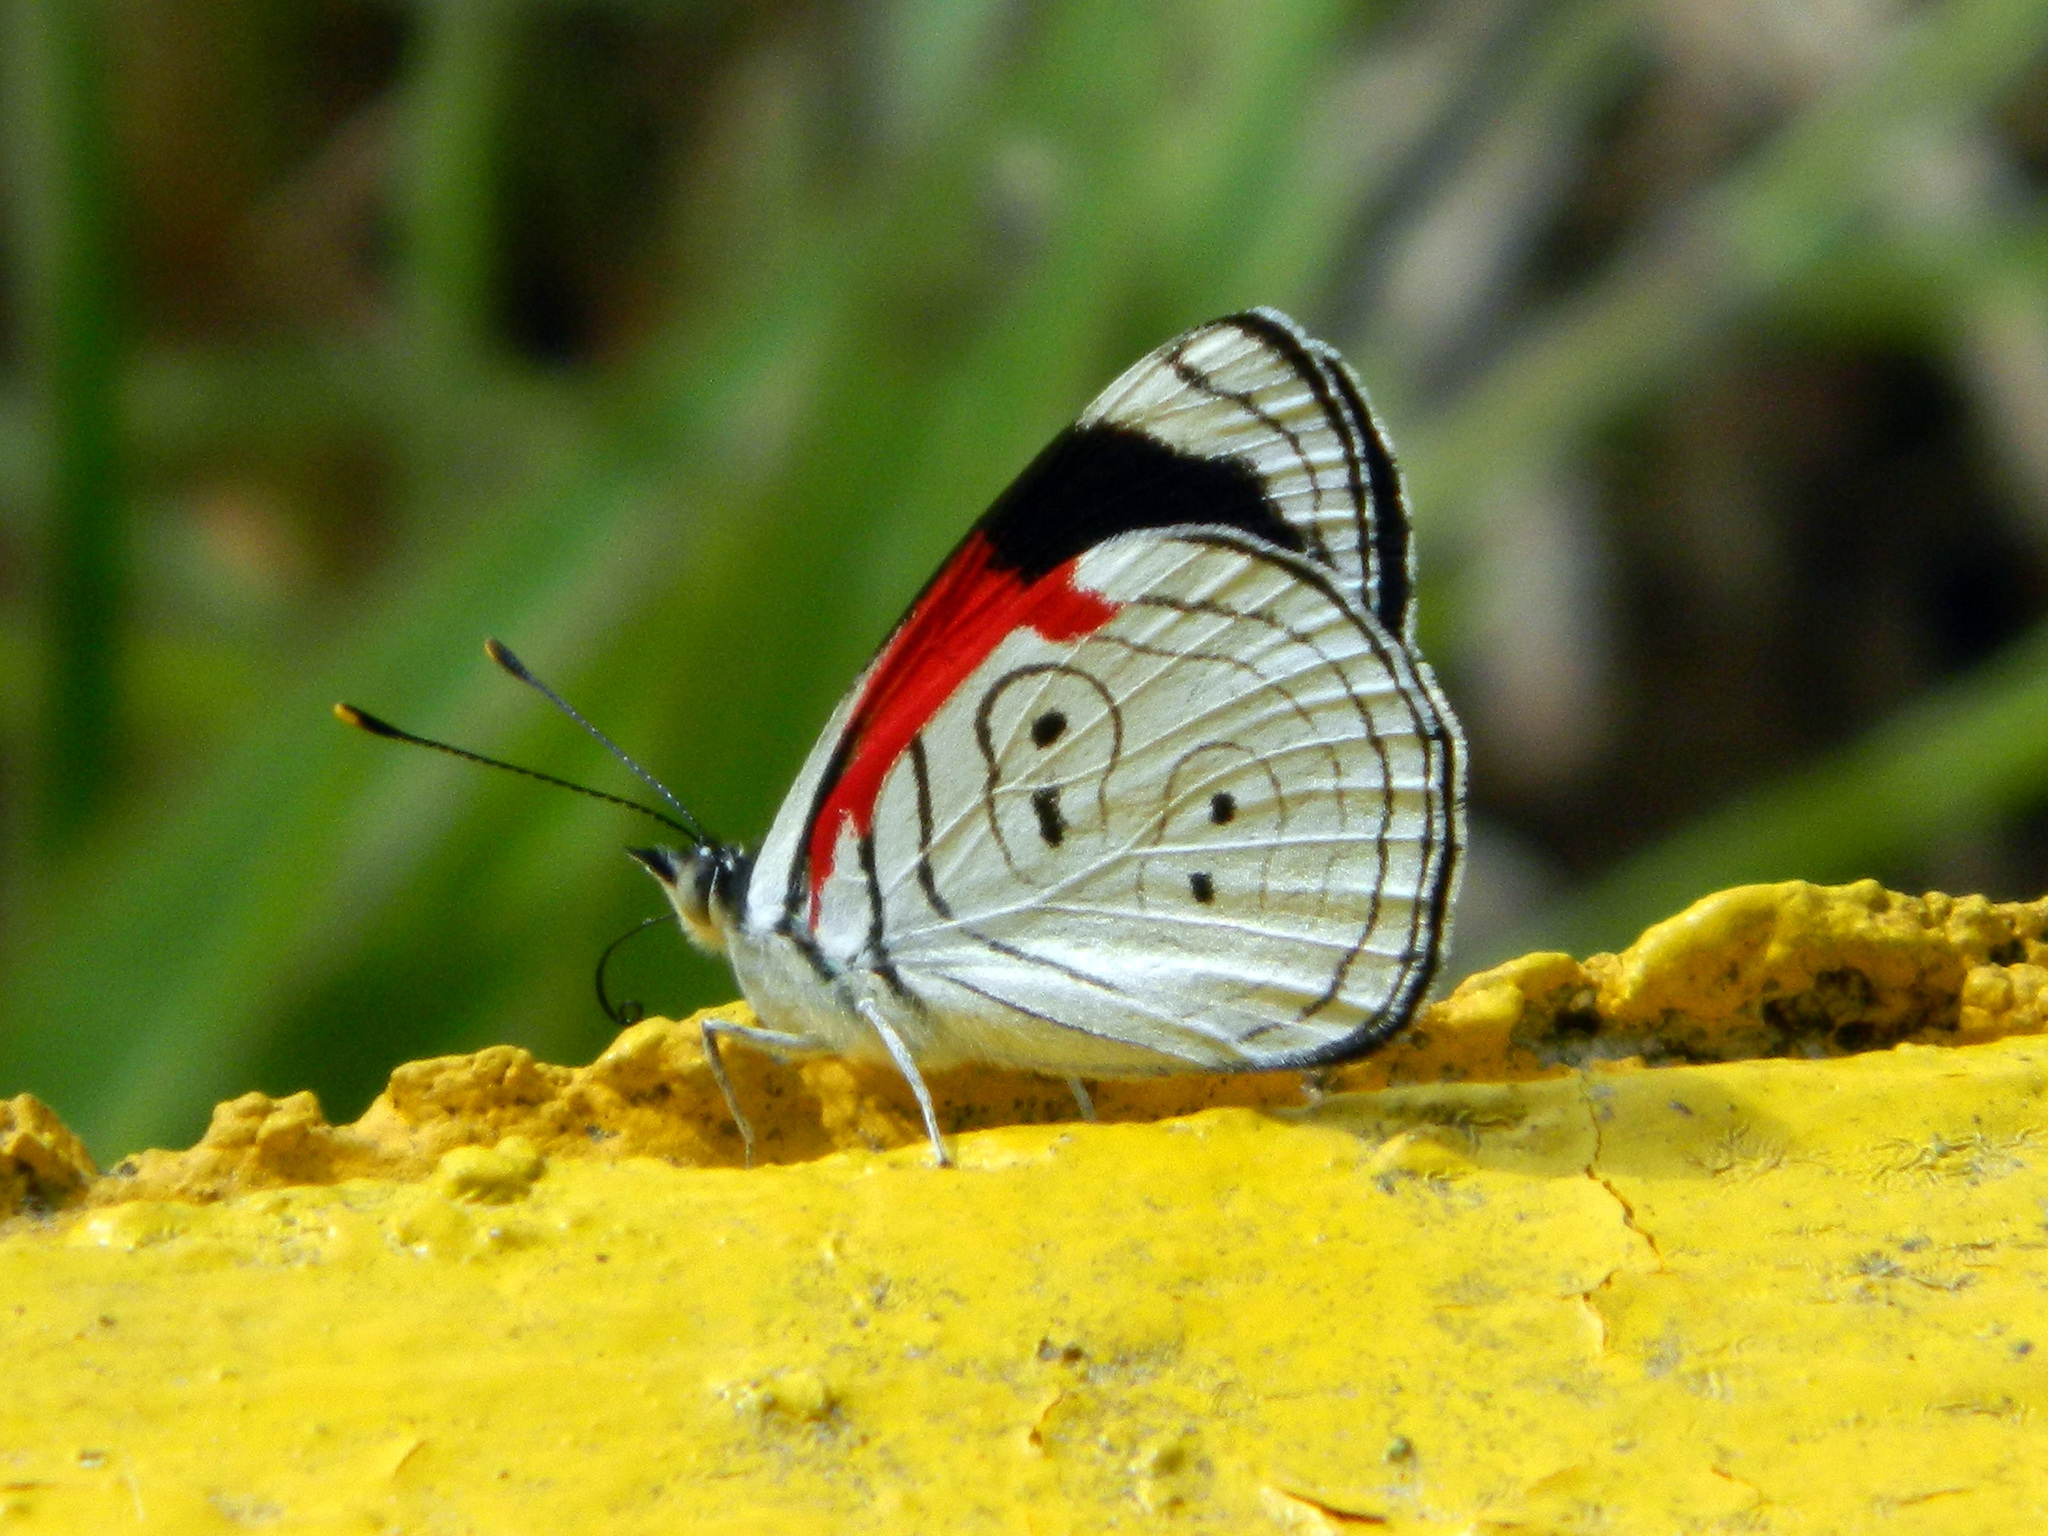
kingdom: Animalia
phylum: Arthropoda
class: Insecta
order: Lepidoptera
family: Nymphalidae
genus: Diaethria
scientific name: Diaethria anna
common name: Anna’s eighty-eight
